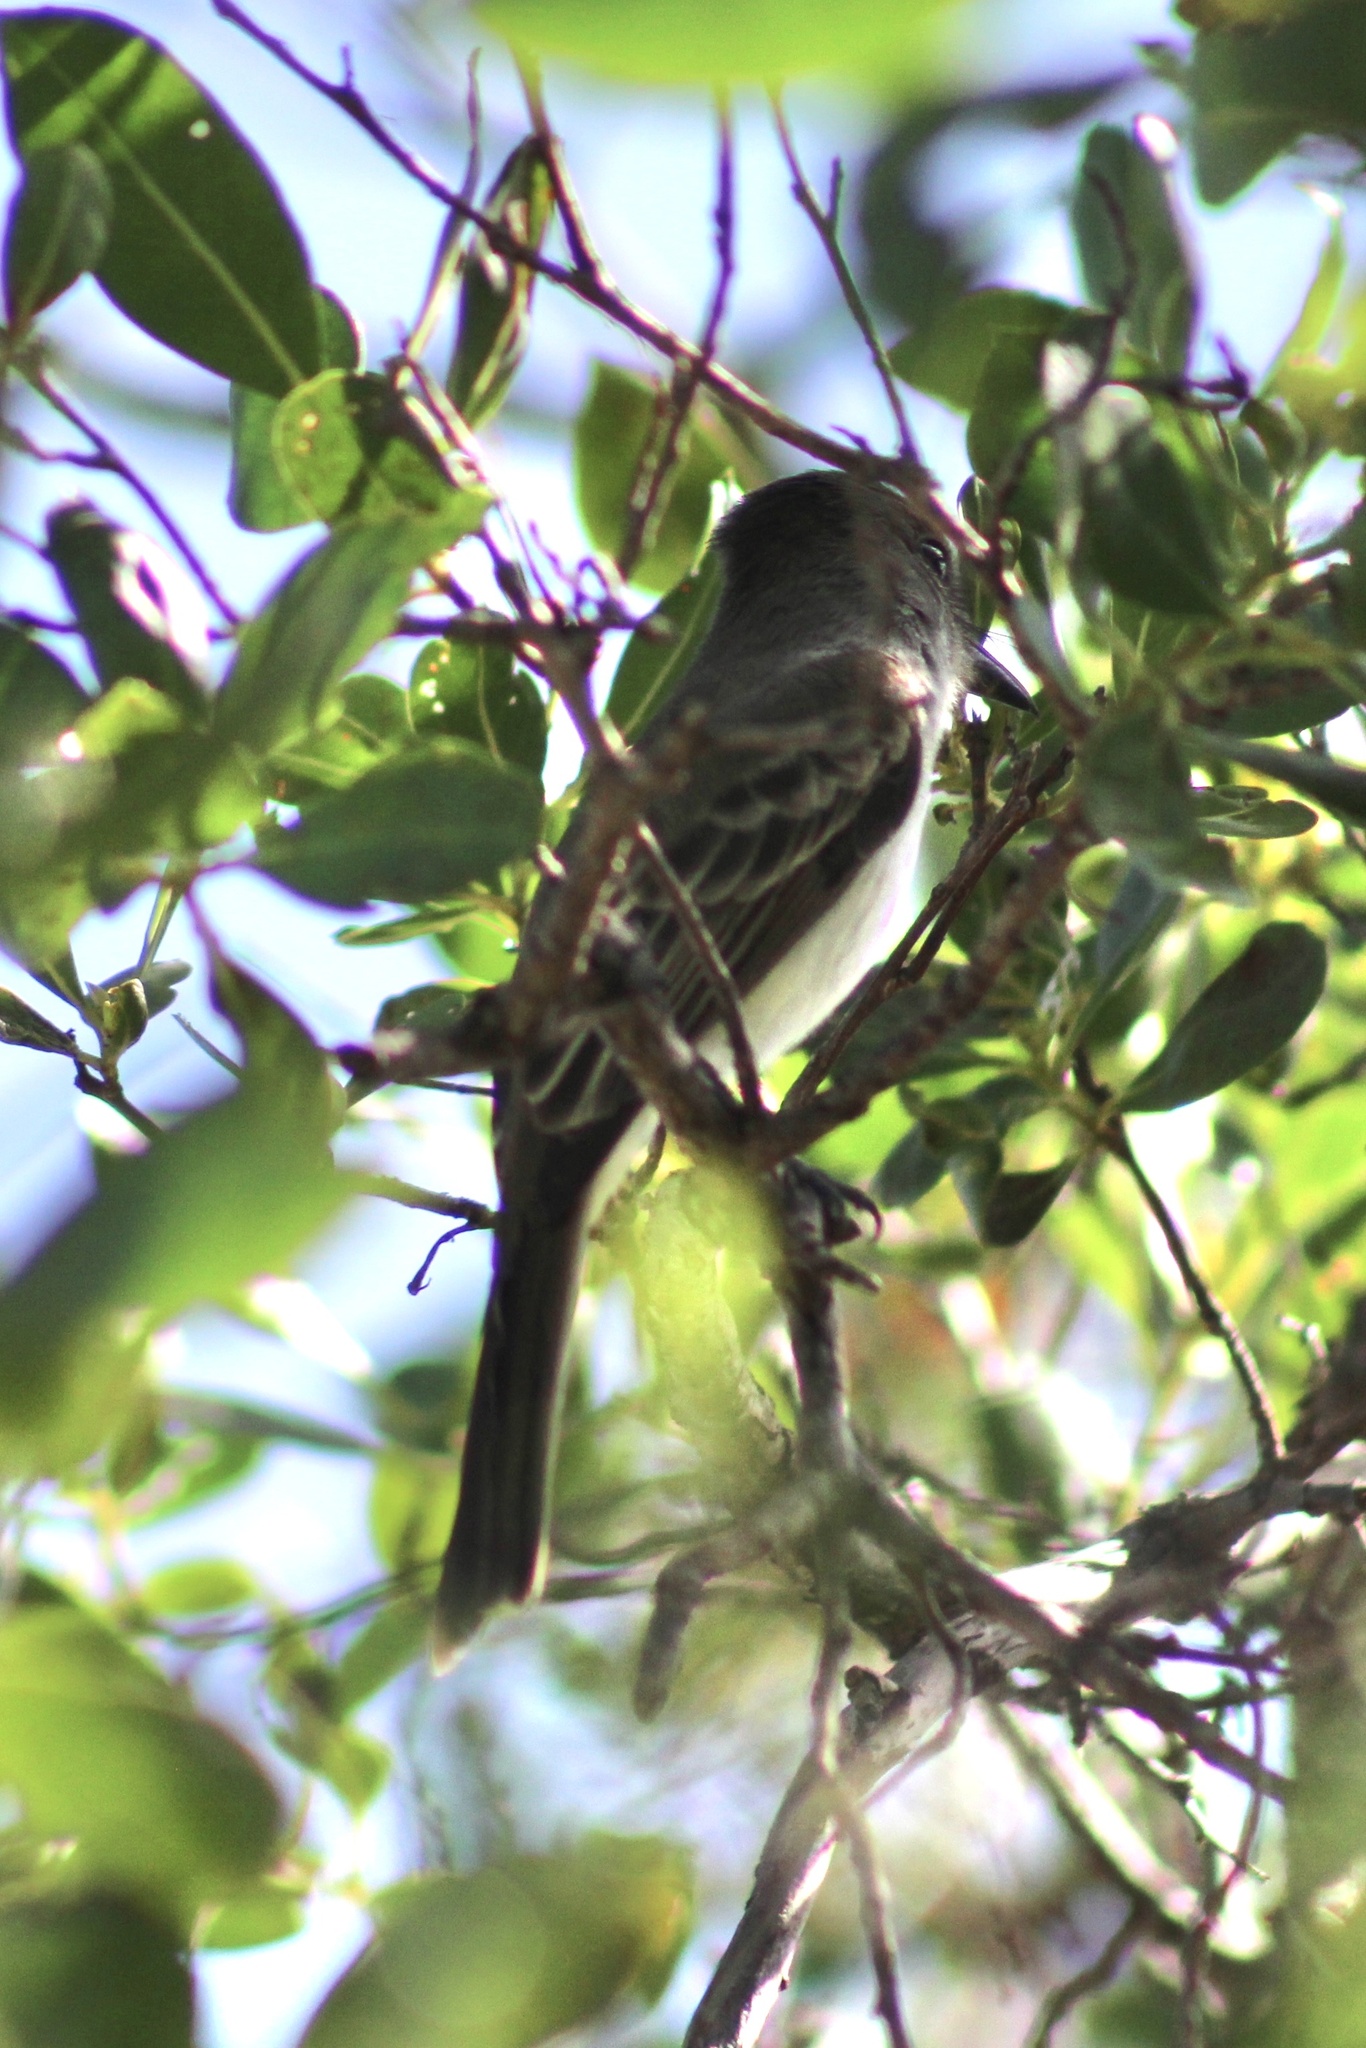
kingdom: Animalia
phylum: Chordata
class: Aves
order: Passeriformes
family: Tyrannidae
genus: Myiarchus
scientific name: Myiarchus sagrae
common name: La sagra's flycatcher
